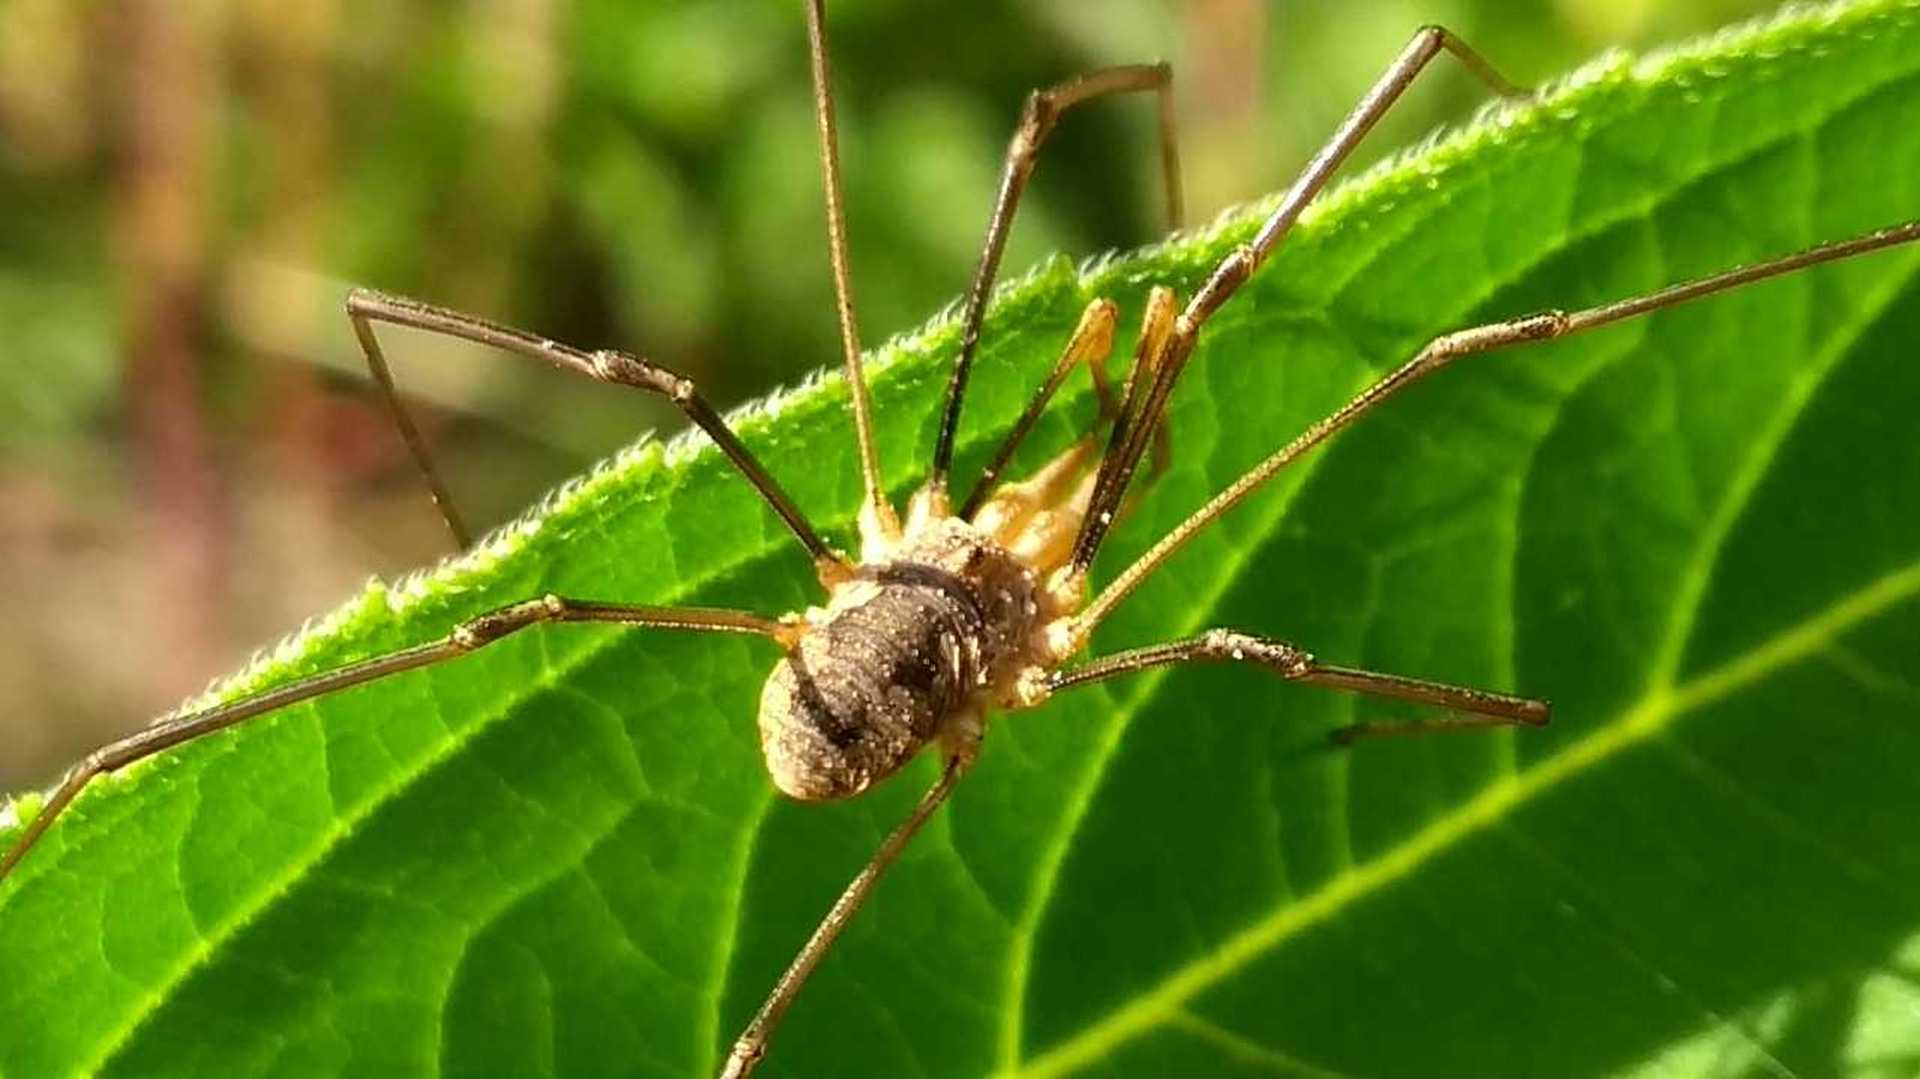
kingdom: Animalia
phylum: Arthropoda
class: Arachnida
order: Opiliones
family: Phalangiidae
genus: Phalangium
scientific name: Phalangium opilio
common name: Daddy longleg
